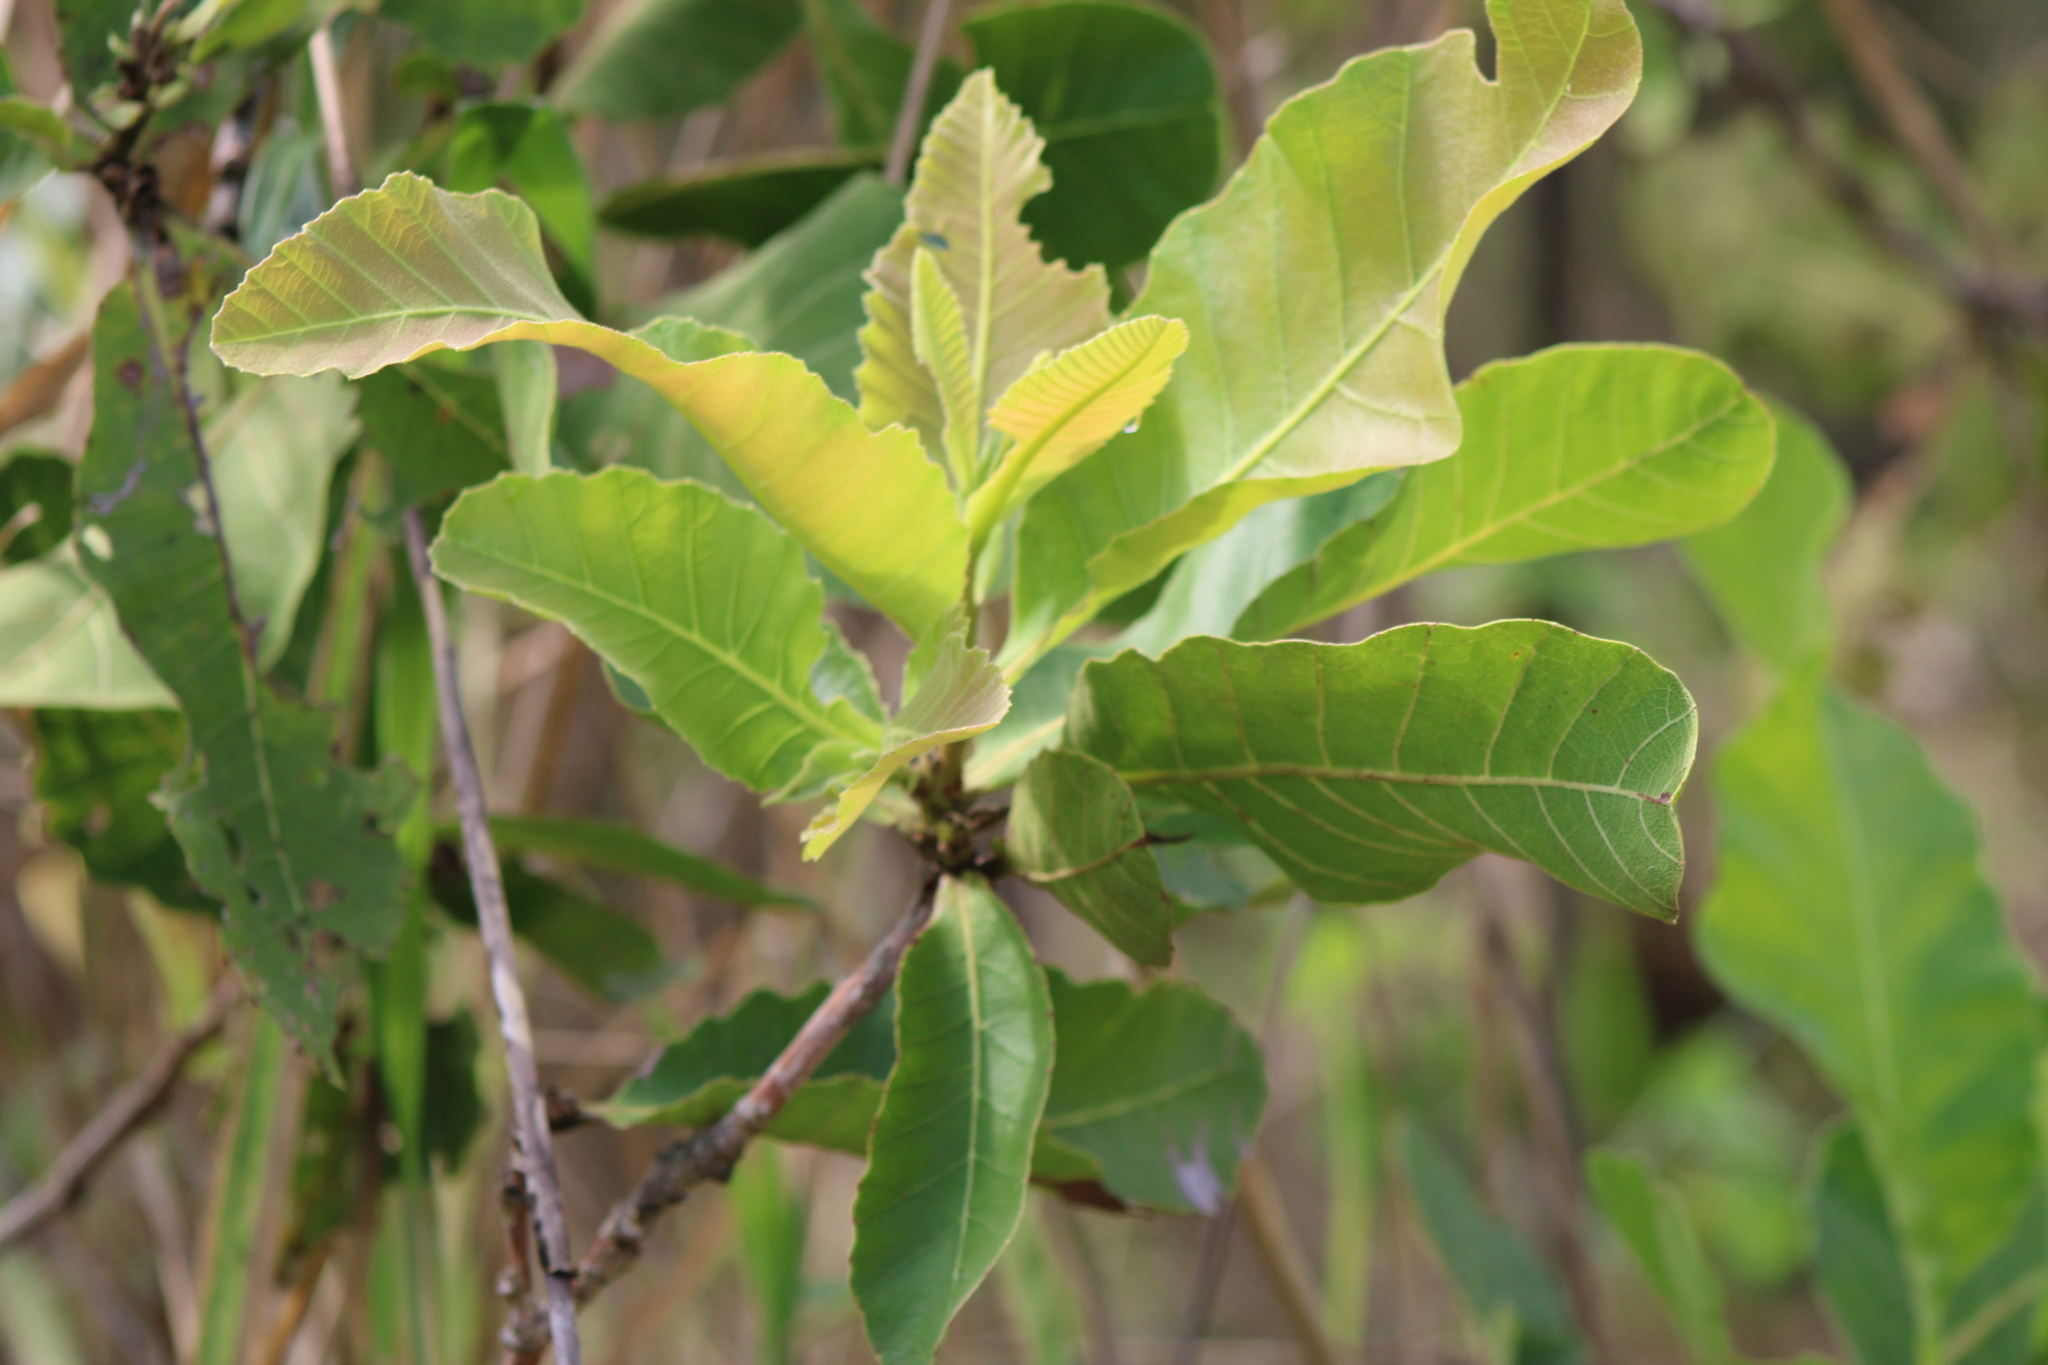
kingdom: Plantae
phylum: Tracheophyta
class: Magnoliopsida
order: Dilleniales
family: Dilleniaceae
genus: Curatella
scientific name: Curatella americana
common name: Sandpaper tree
